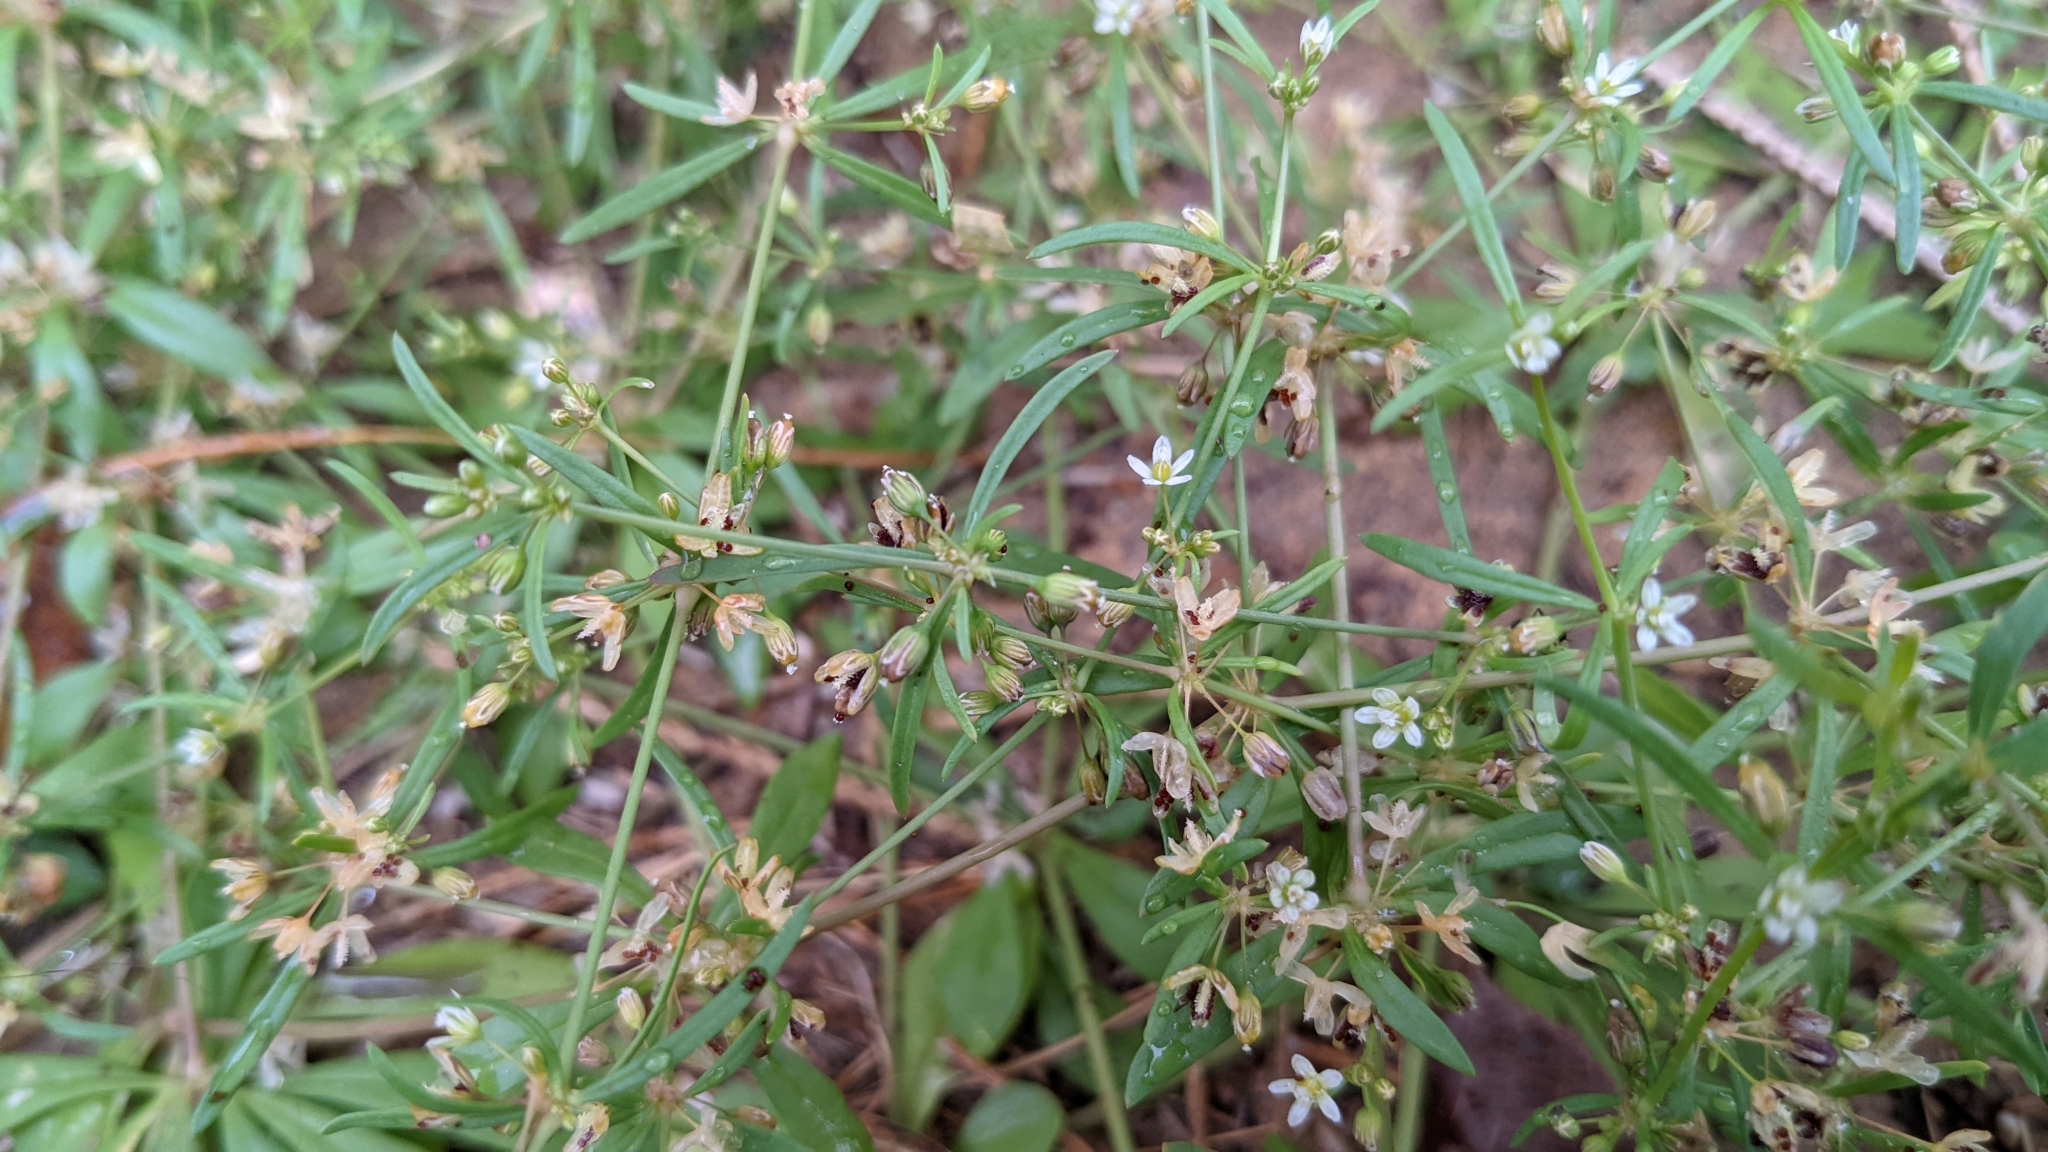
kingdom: Plantae
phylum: Tracheophyta
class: Magnoliopsida
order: Caryophyllales
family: Molluginaceae
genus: Mollugo
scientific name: Mollugo verticillata
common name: Green carpetweed
